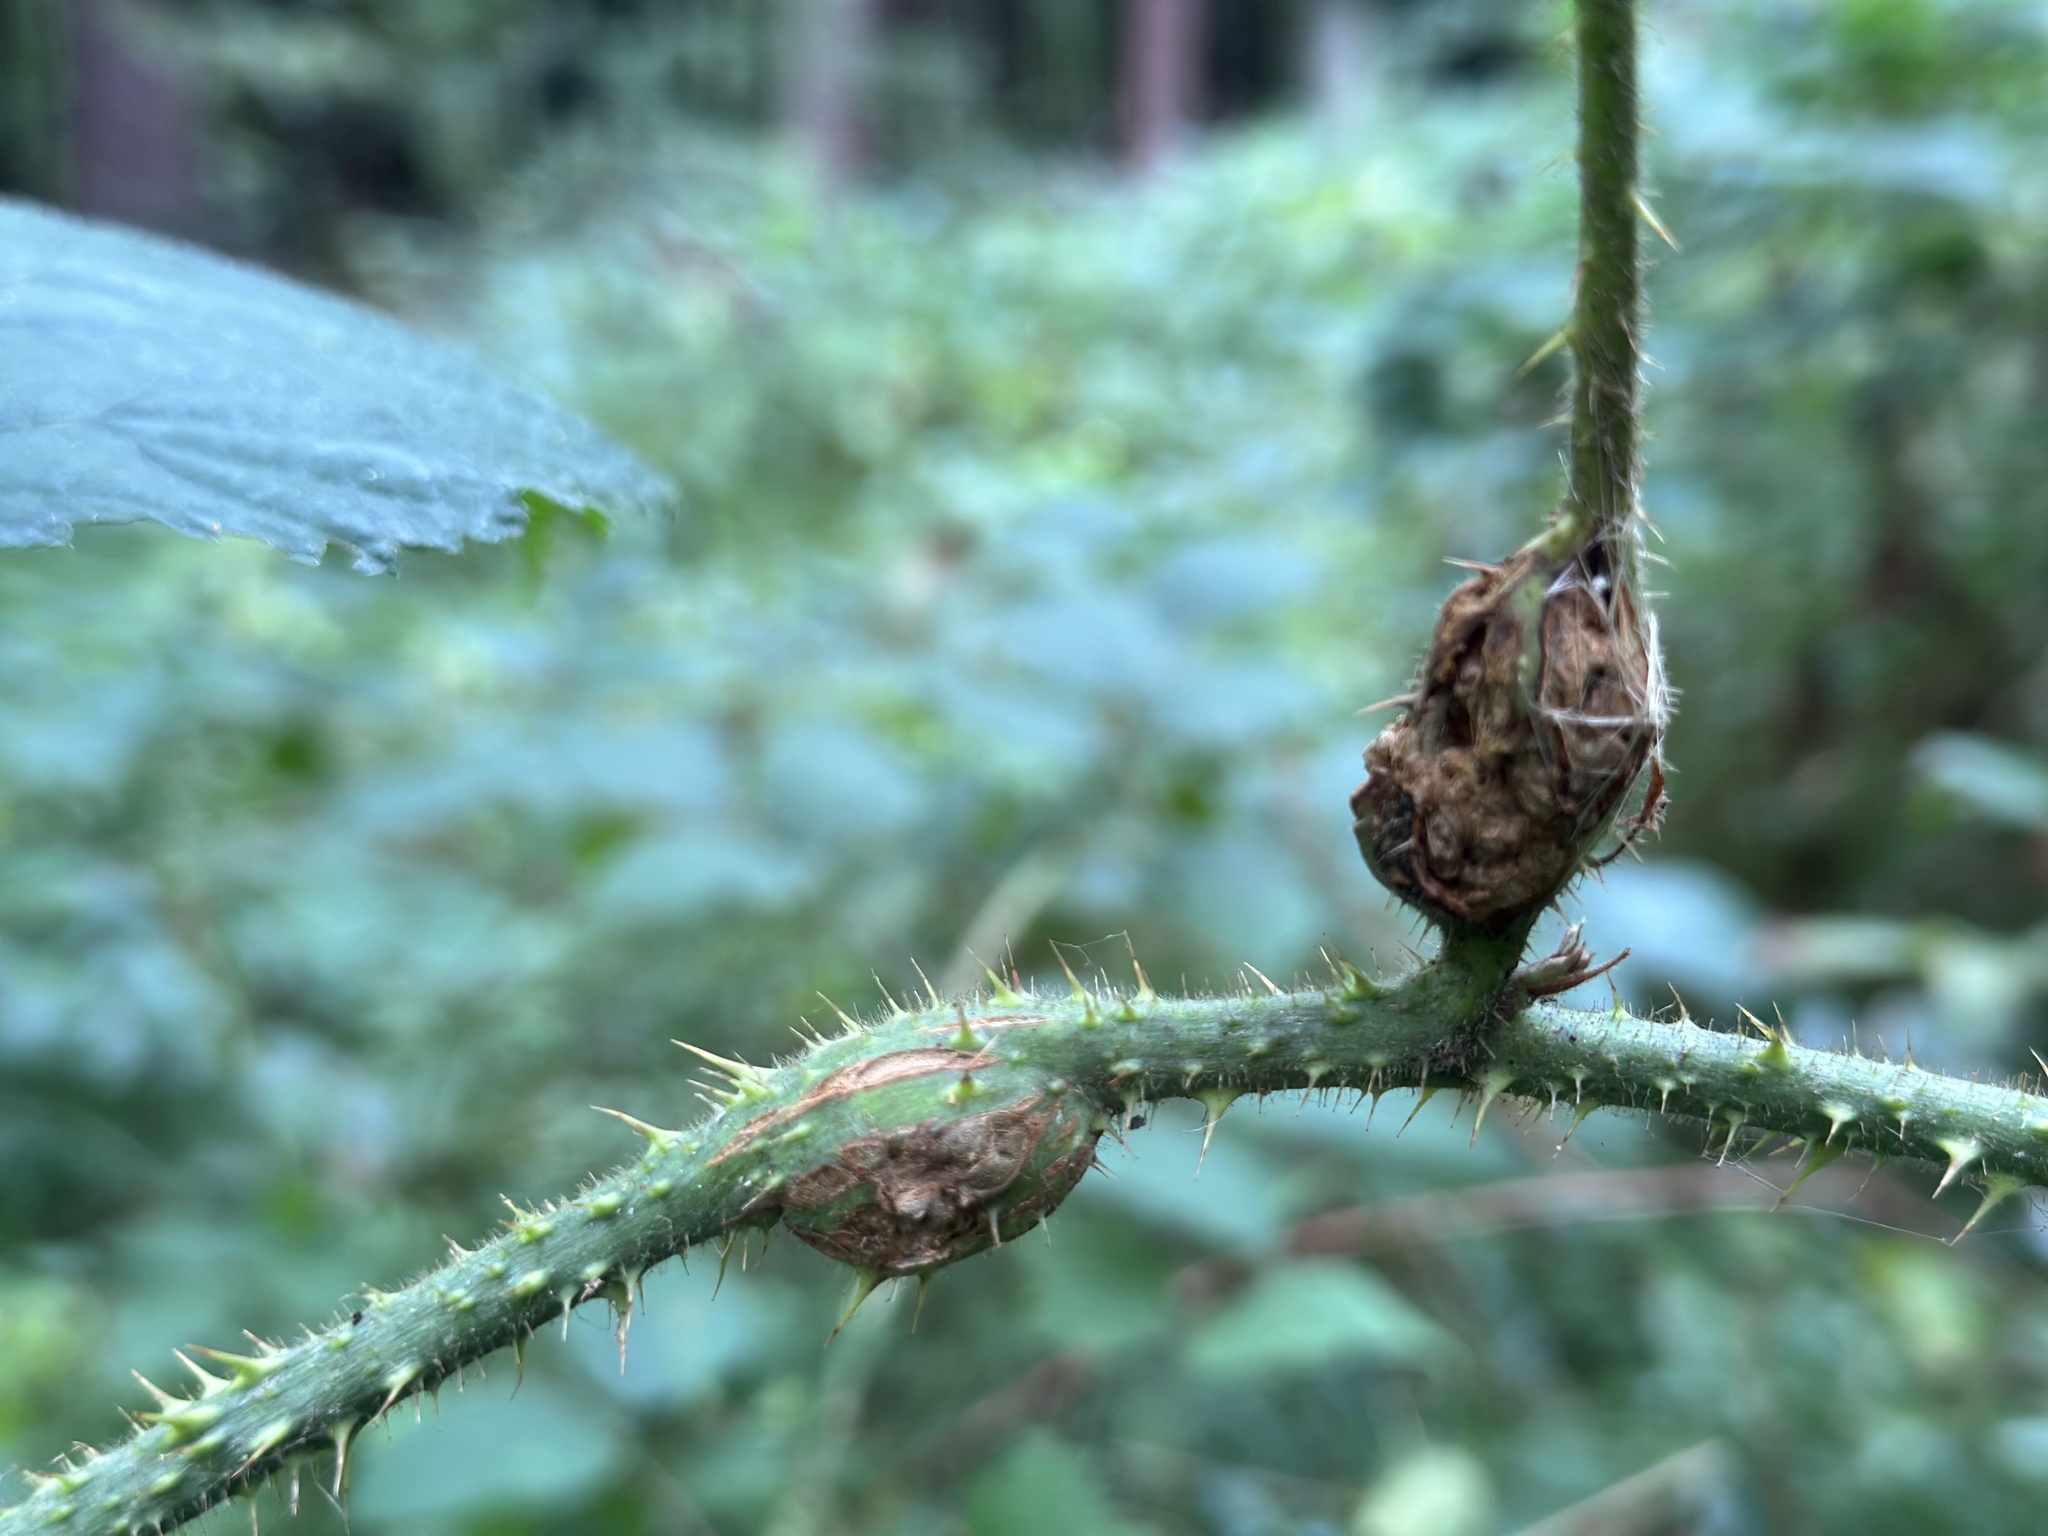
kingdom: Animalia
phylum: Arthropoda
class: Insecta
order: Diptera
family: Cecidomyiidae
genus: Lasioptera
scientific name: Lasioptera rubi
